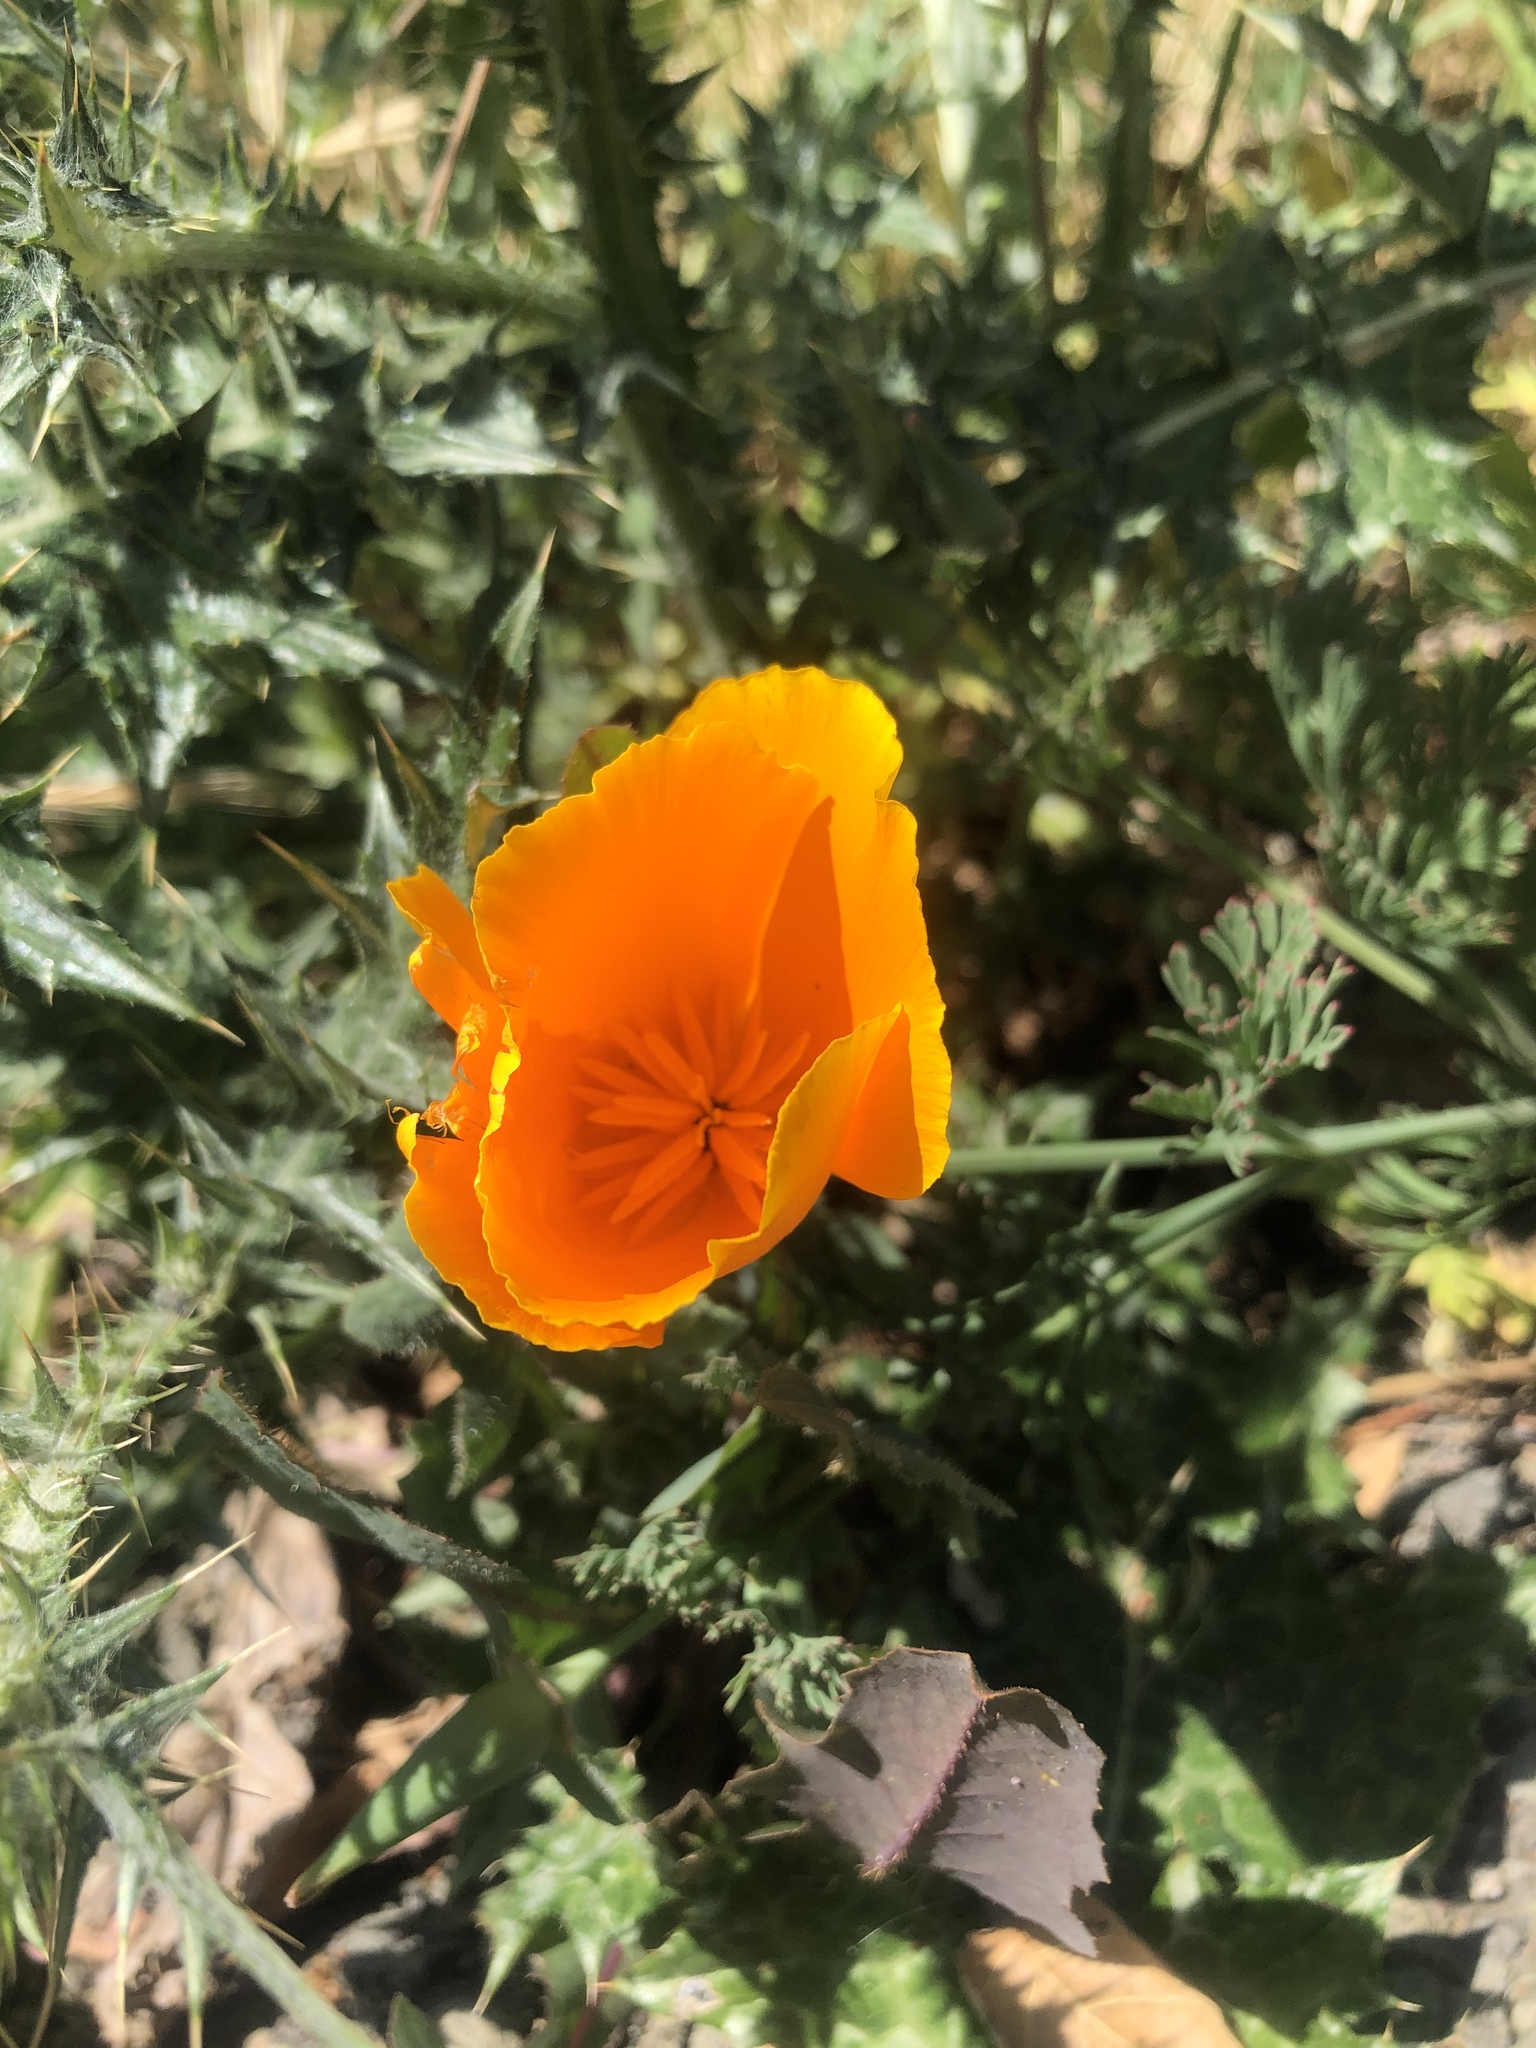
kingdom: Plantae
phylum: Tracheophyta
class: Magnoliopsida
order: Ranunculales
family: Papaveraceae
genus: Eschscholzia
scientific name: Eschscholzia californica
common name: California poppy
